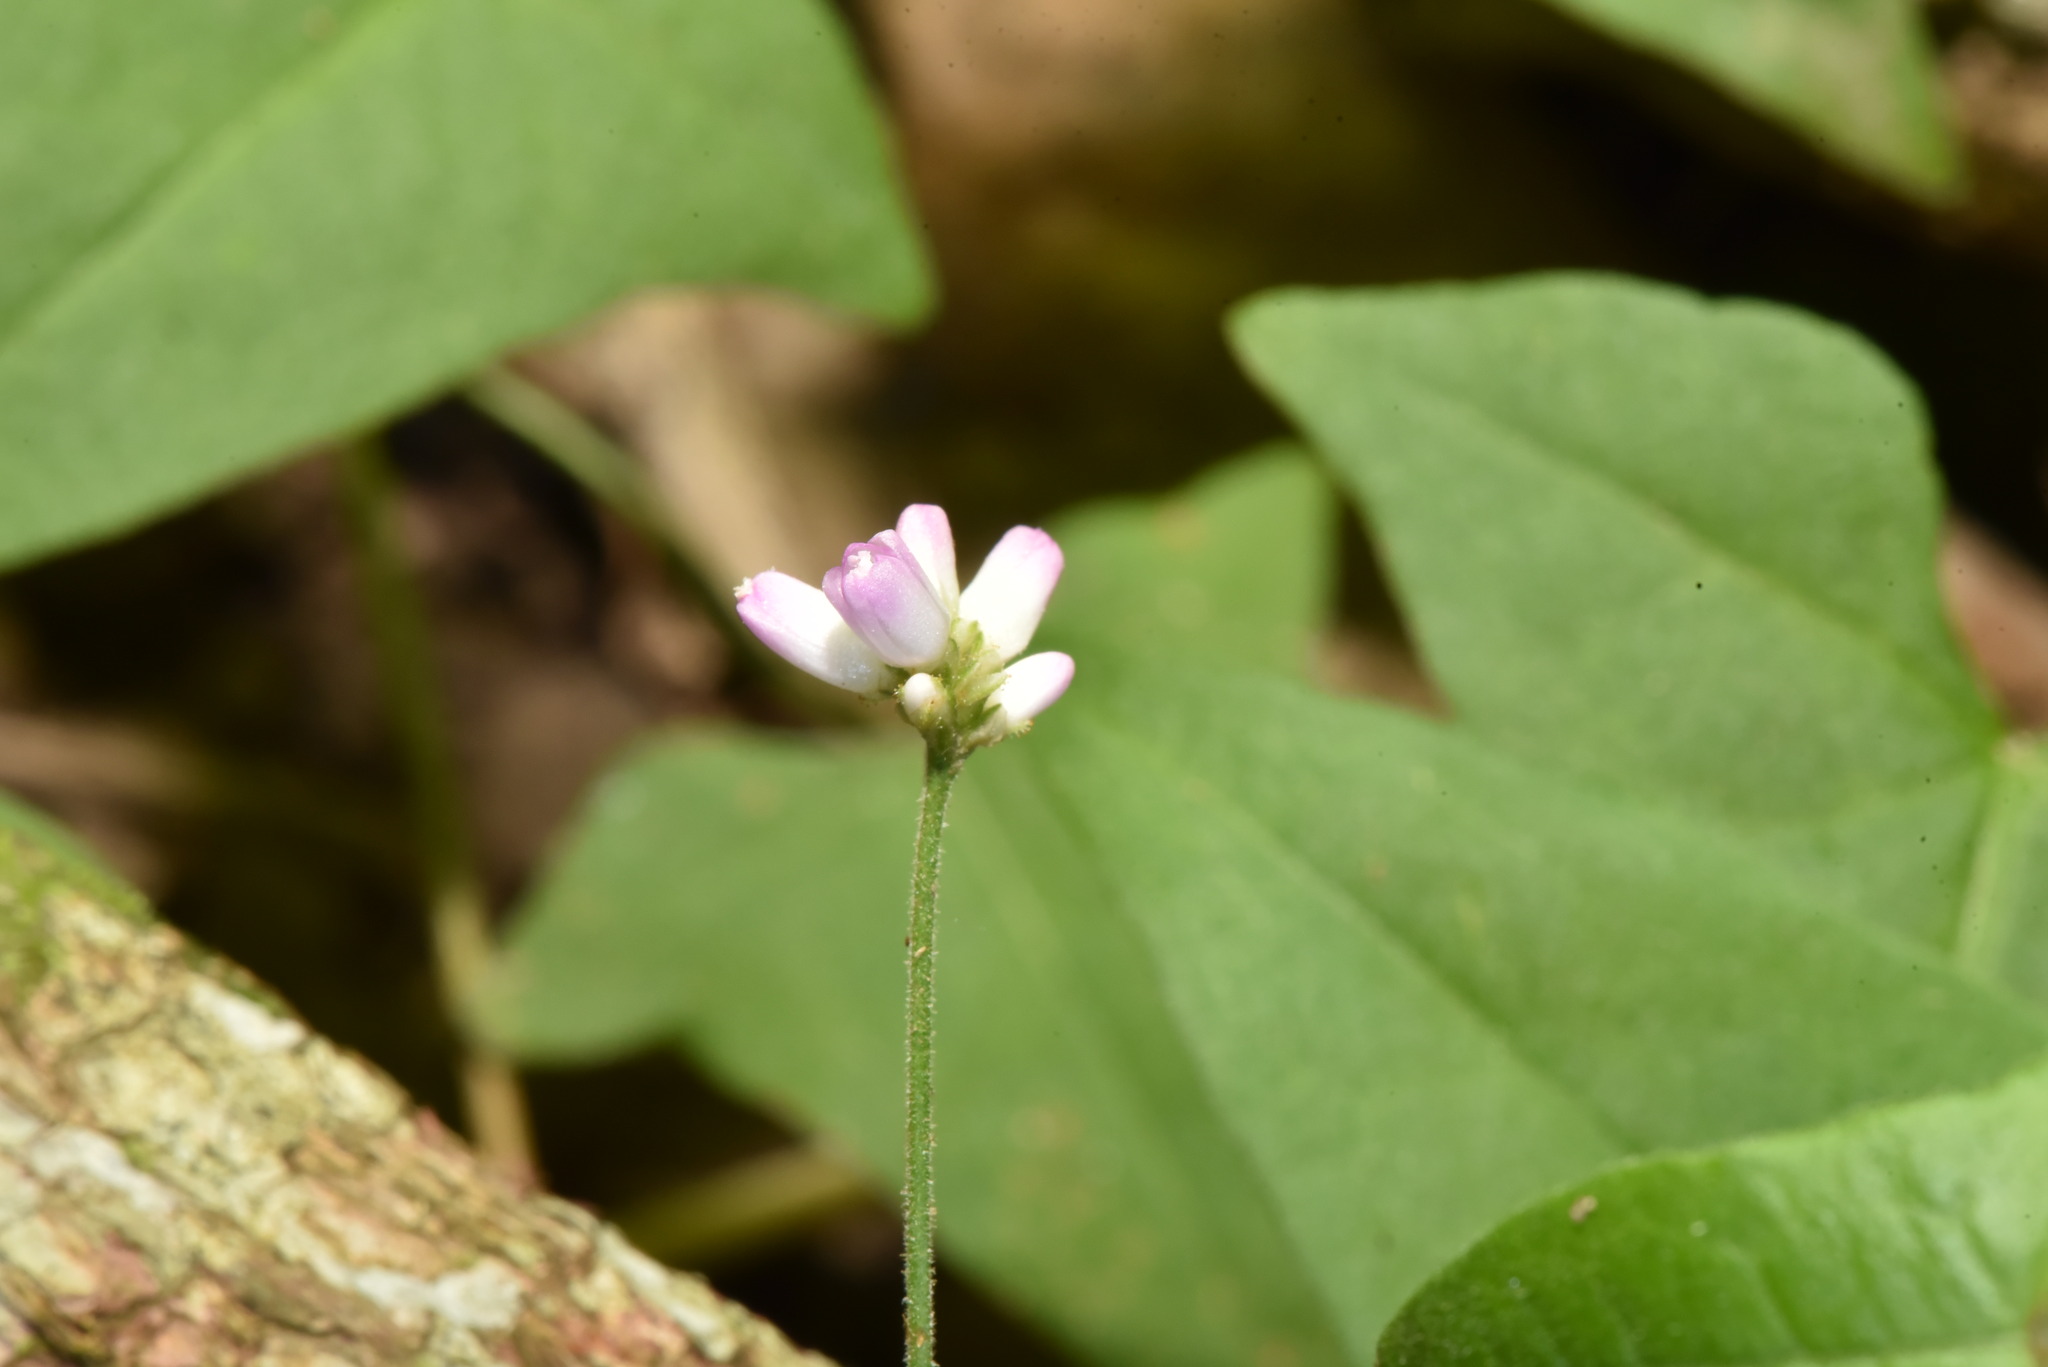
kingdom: Plantae
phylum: Tracheophyta
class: Magnoliopsida
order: Caryophyllales
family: Polygonaceae
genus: Persicaria
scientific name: Persicaria senticosa
